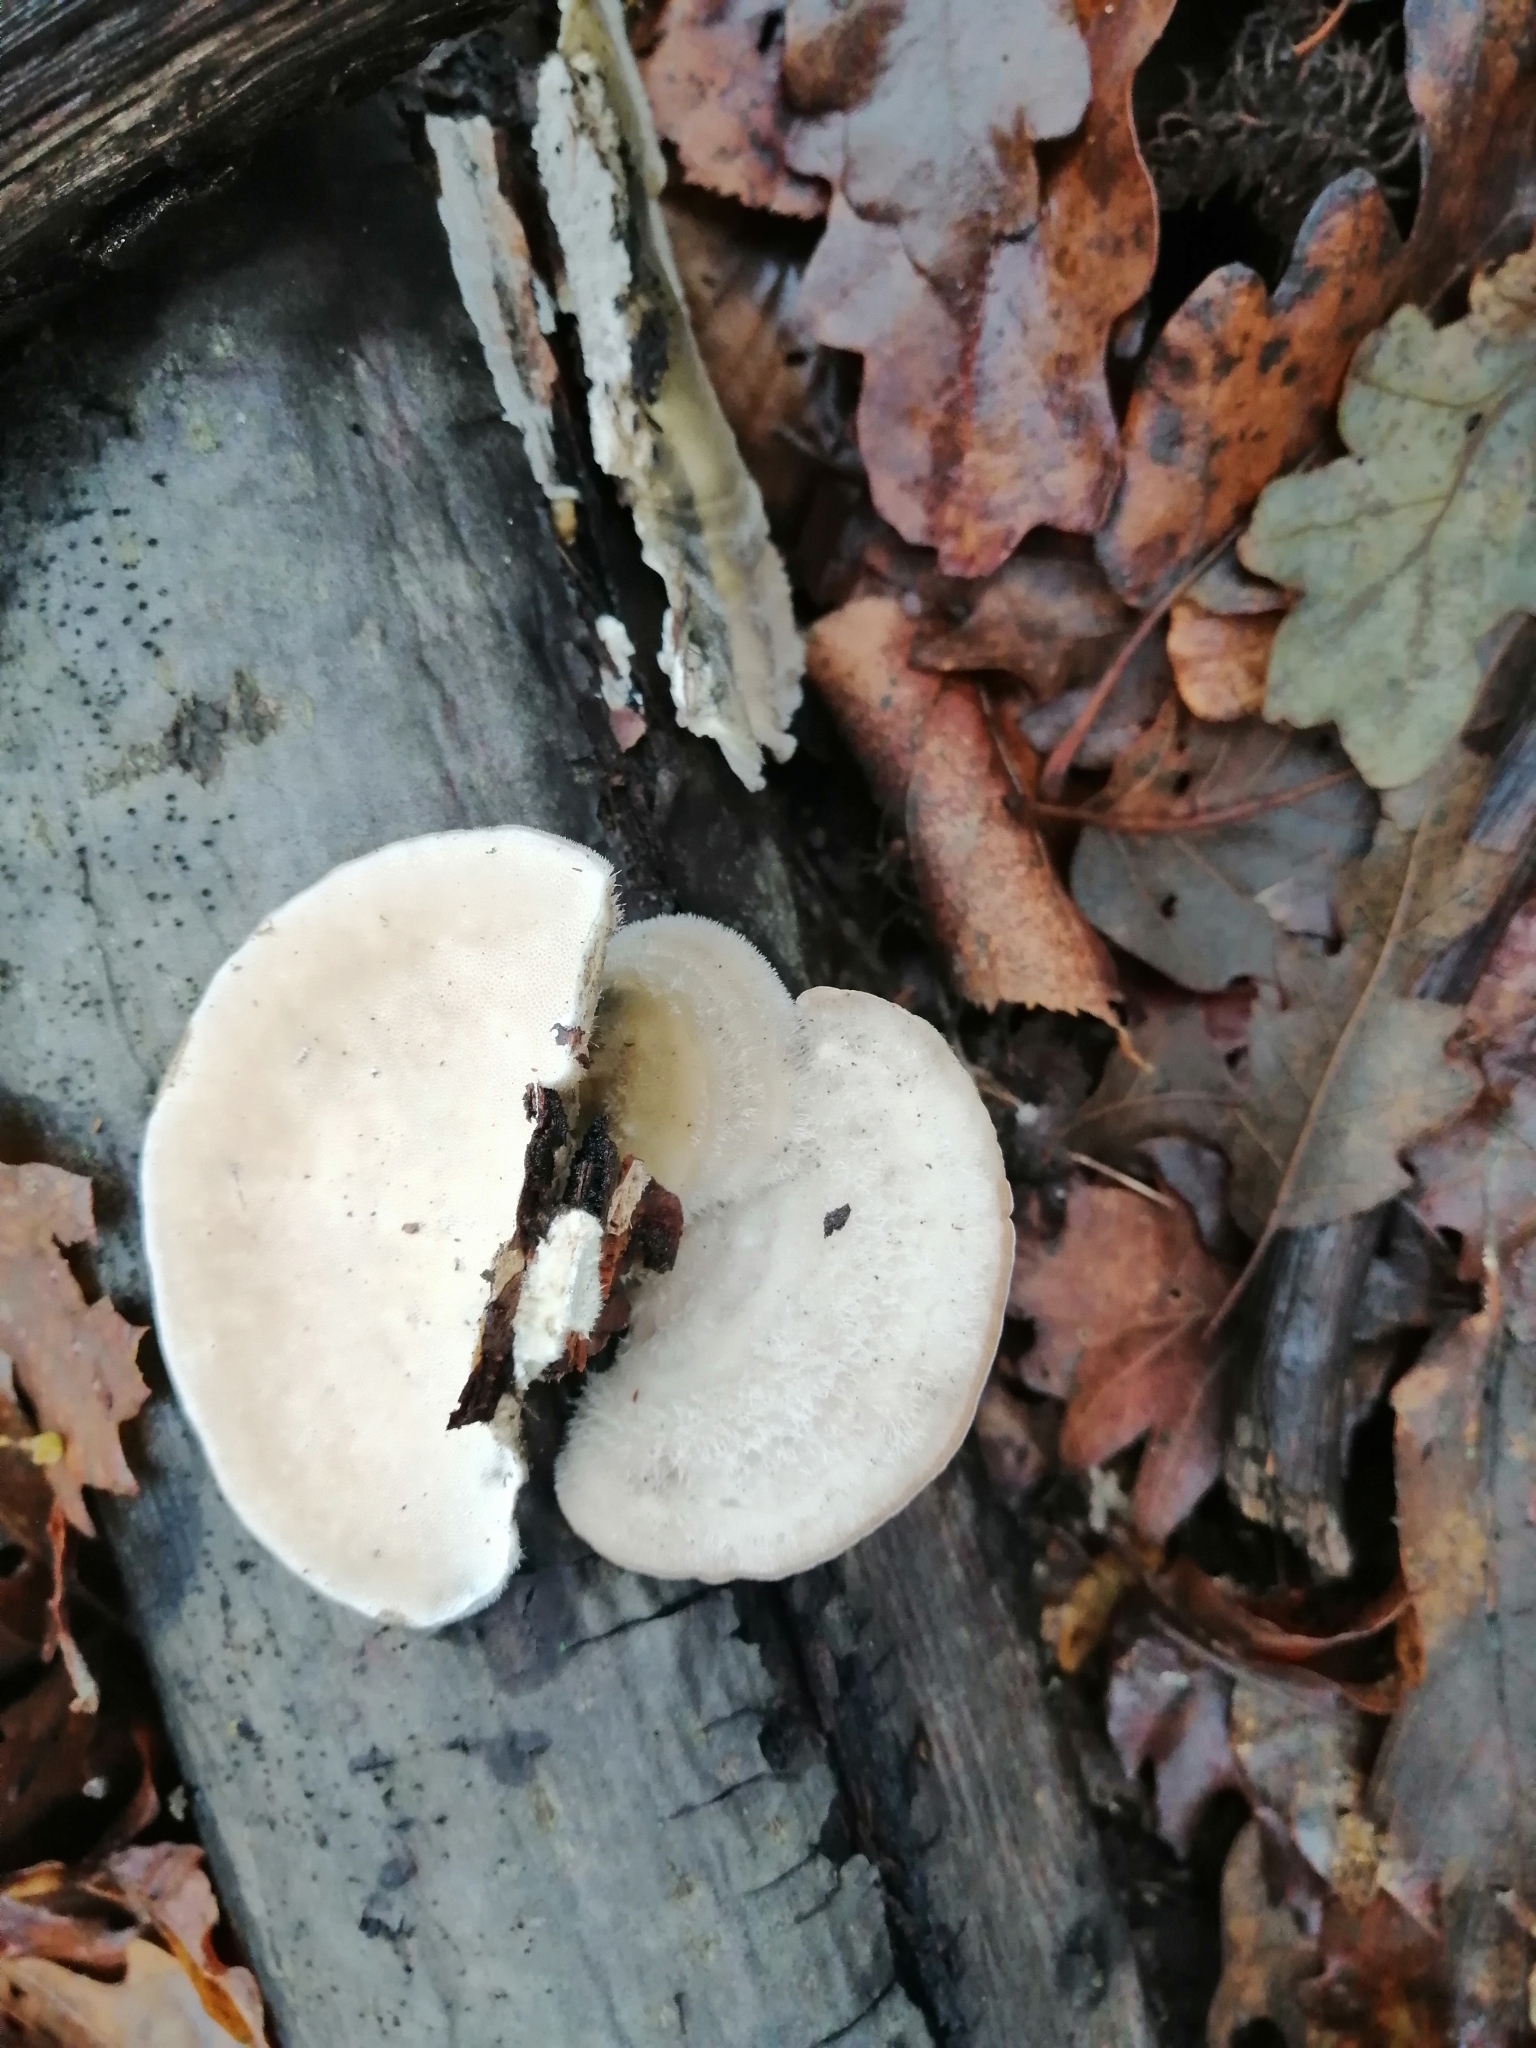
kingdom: Fungi
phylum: Basidiomycota
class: Agaricomycetes
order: Polyporales
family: Polyporaceae
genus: Trametes
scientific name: Trametes hirsuta
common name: Hairy bracket
